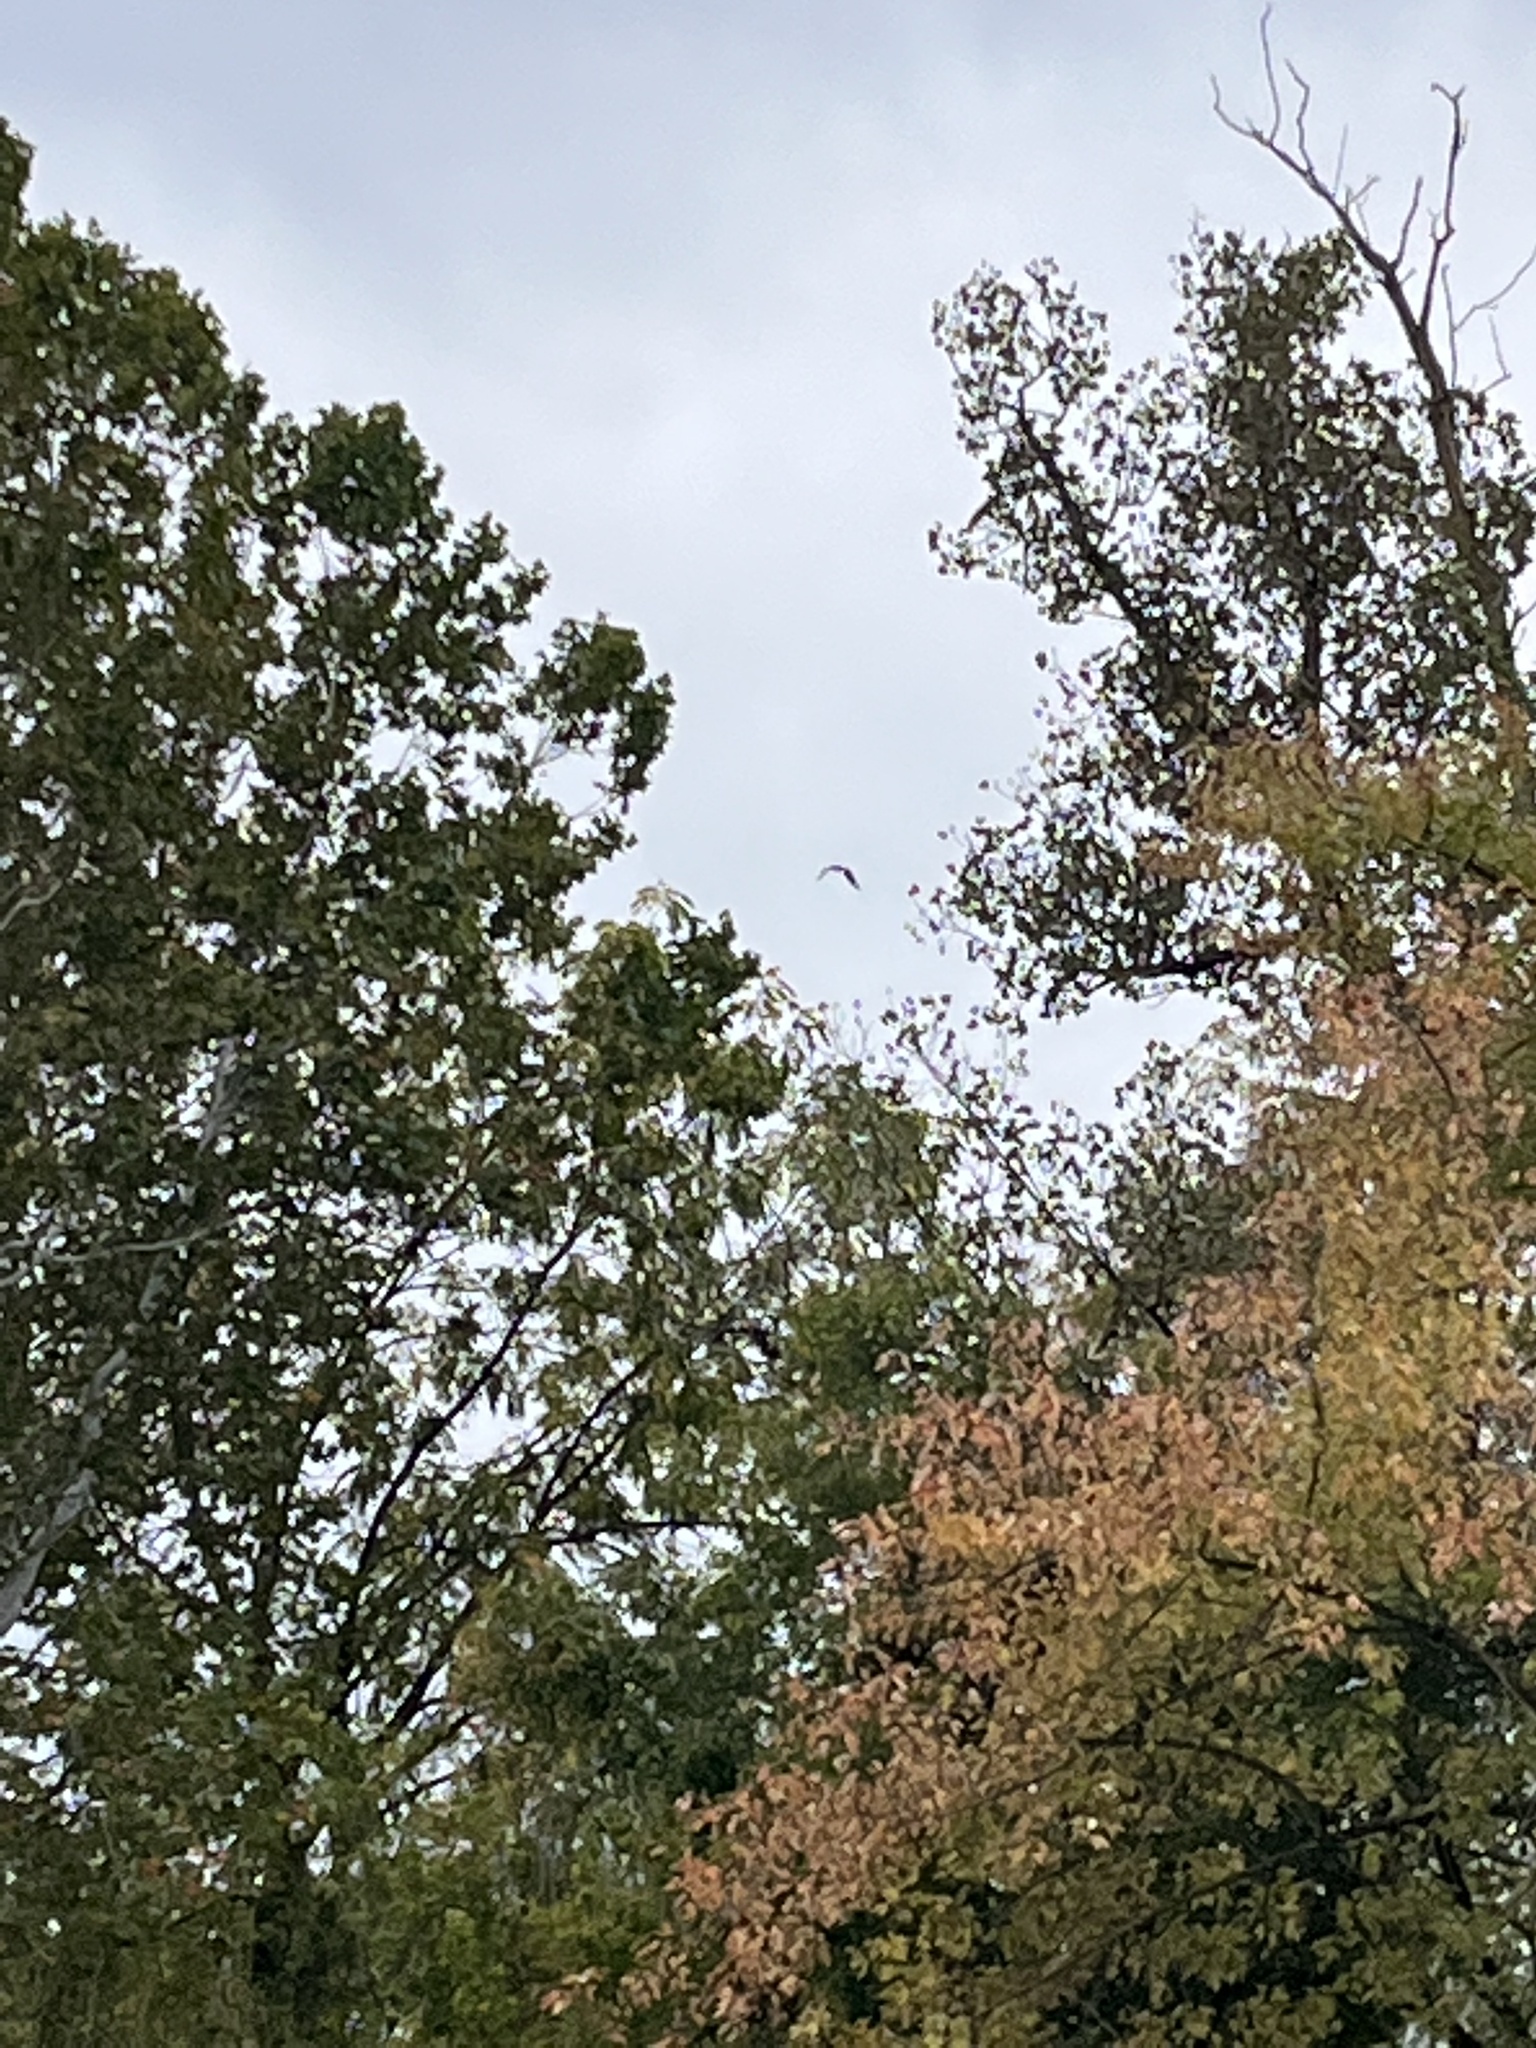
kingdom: Animalia
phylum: Chordata
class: Aves
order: Accipitriformes
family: Accipitridae
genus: Haliaeetus
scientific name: Haliaeetus leucocephalus
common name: Bald eagle
